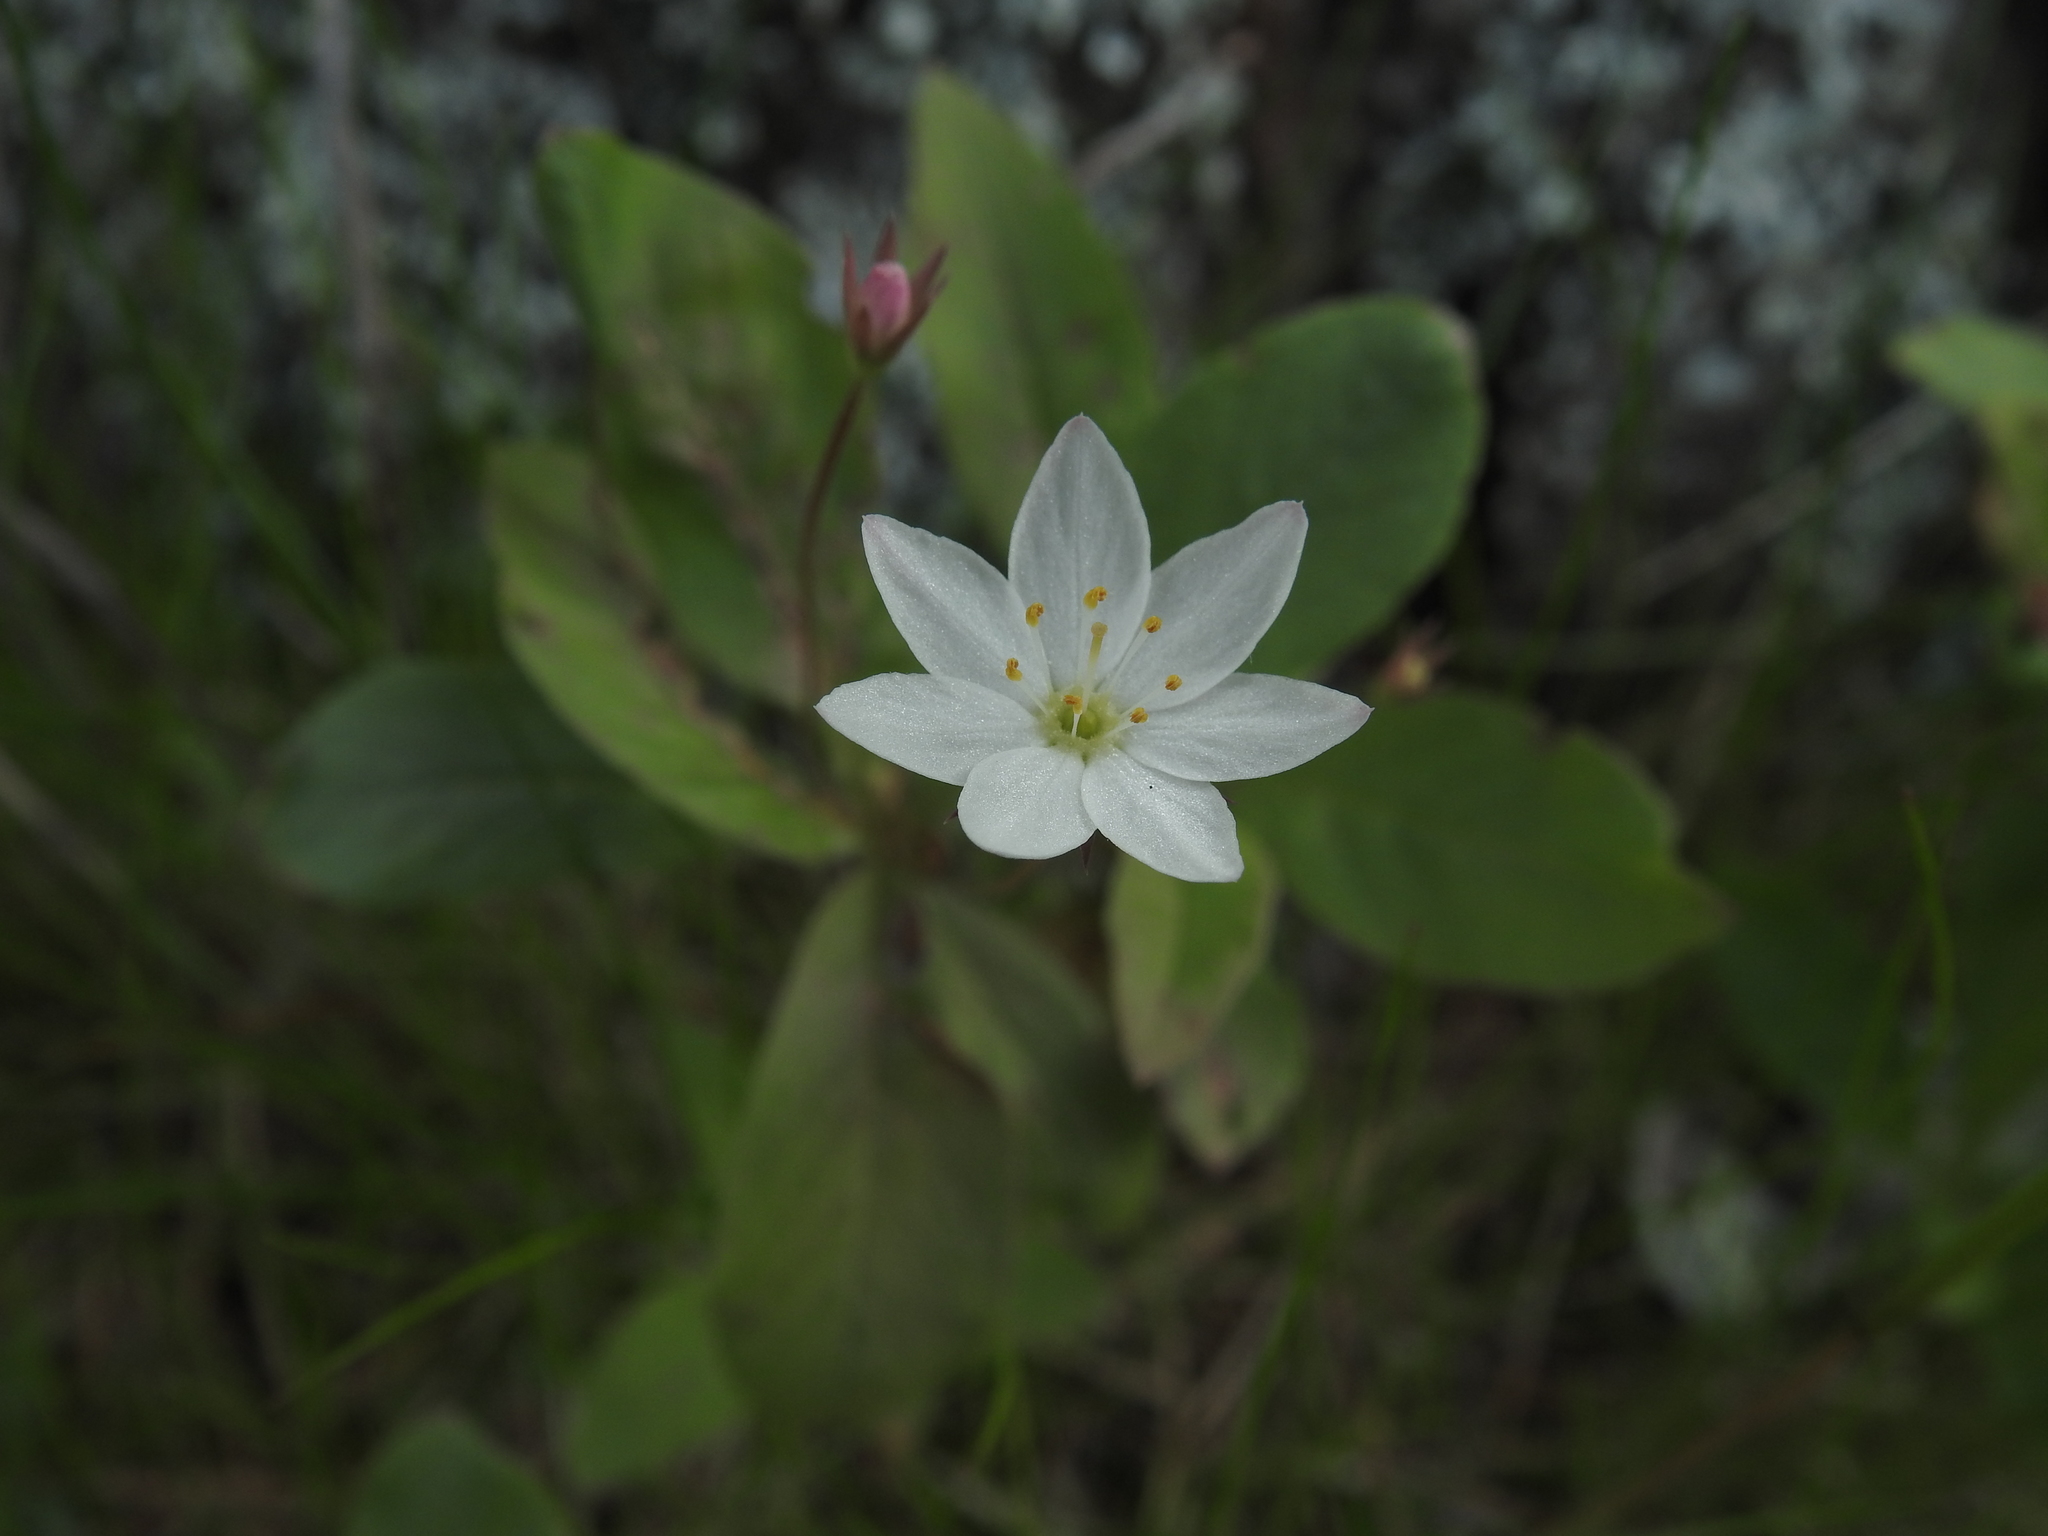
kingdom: Plantae
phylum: Tracheophyta
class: Magnoliopsida
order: Ericales
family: Primulaceae
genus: Lysimachia
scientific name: Lysimachia europaea
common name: Arctic starflower
